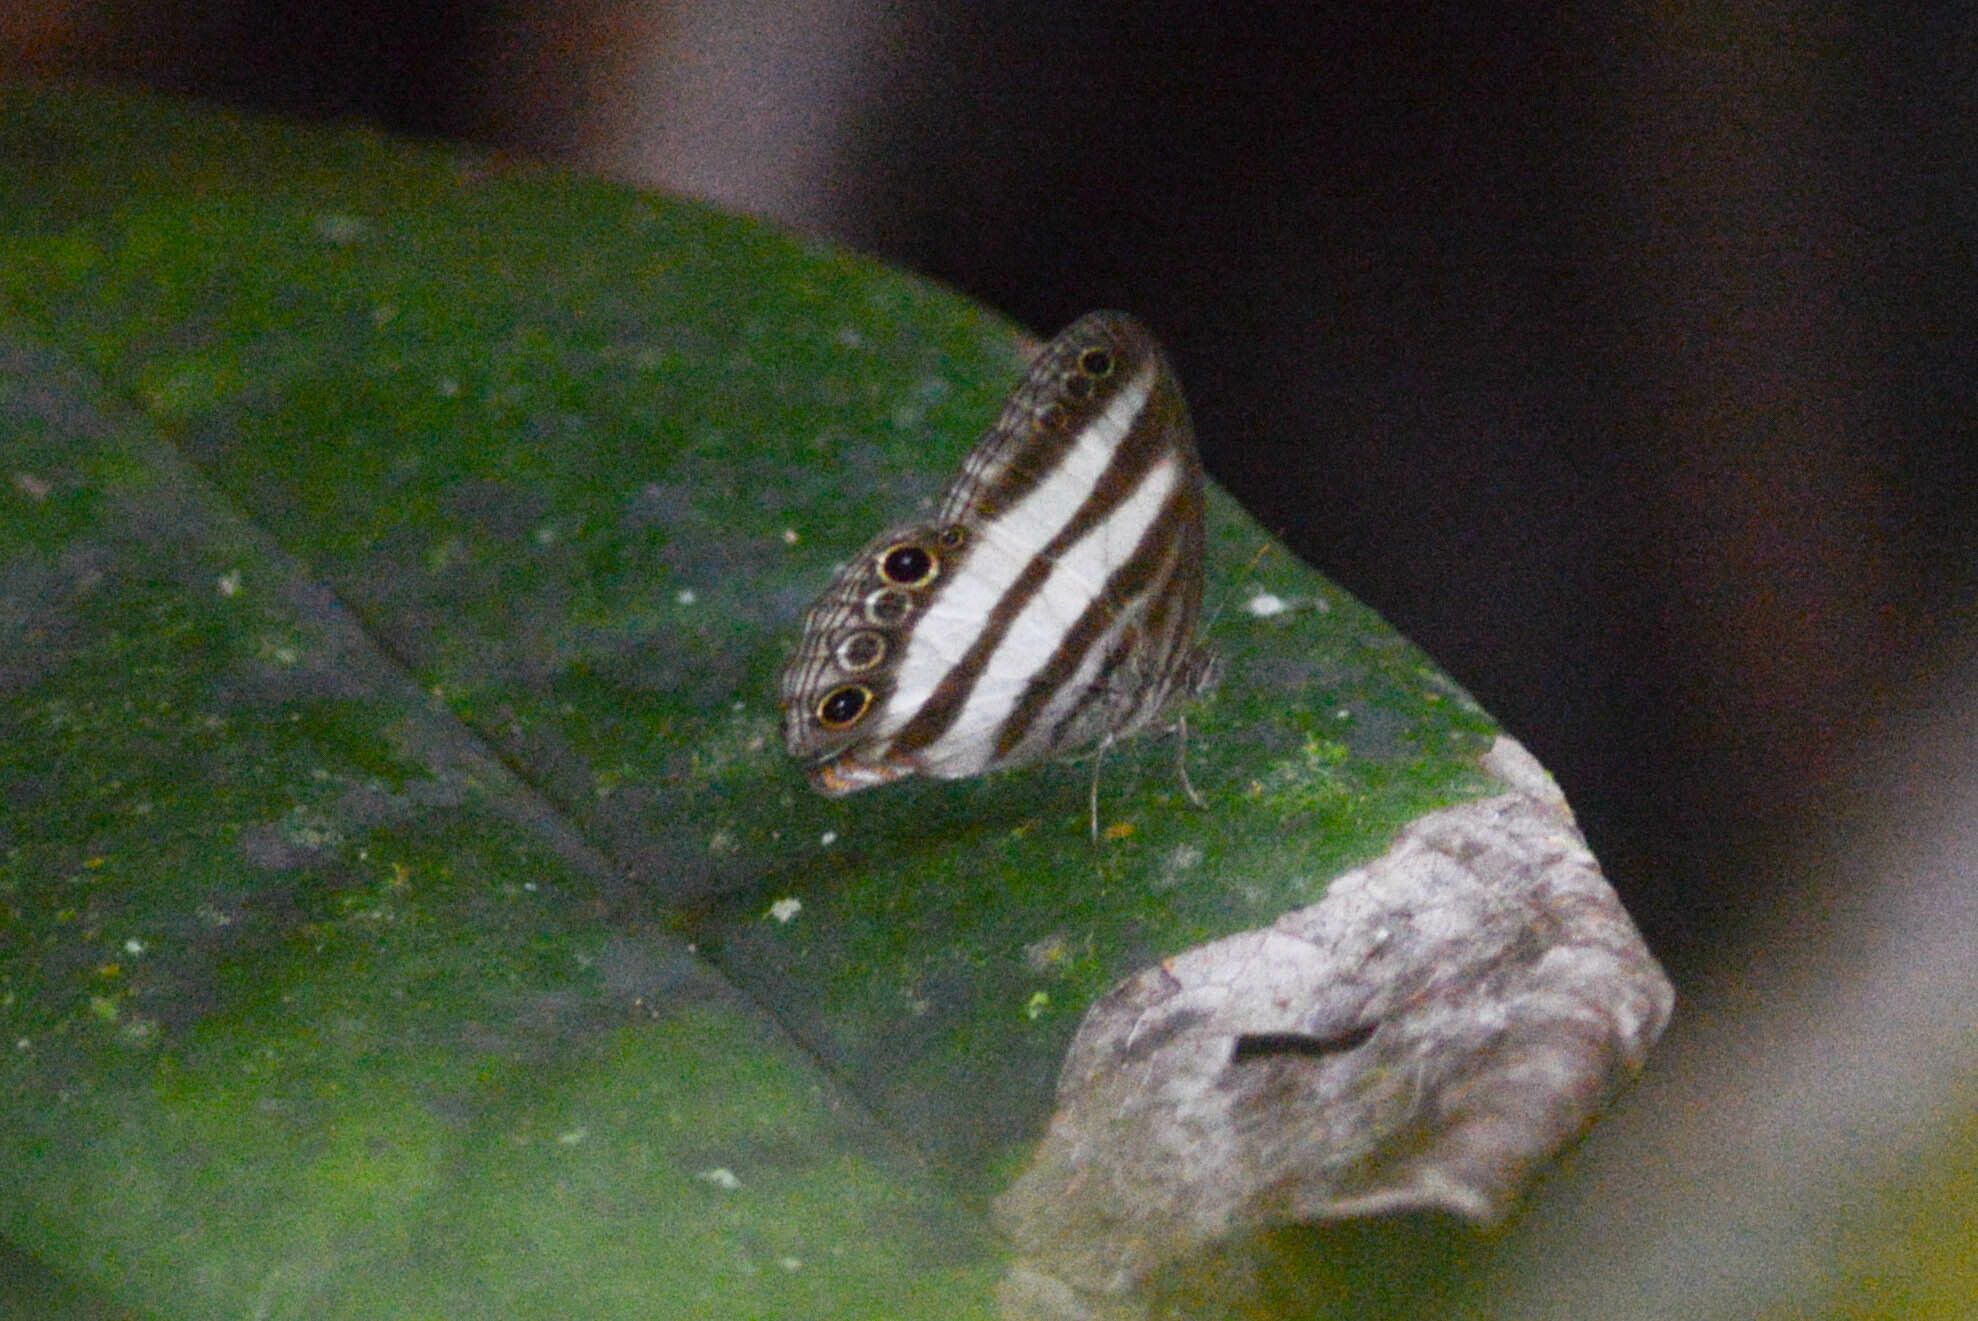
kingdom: Animalia
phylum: Arthropoda
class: Insecta
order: Lepidoptera
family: Nymphalidae
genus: Pareuptychia
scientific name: Pareuptychia hesione
